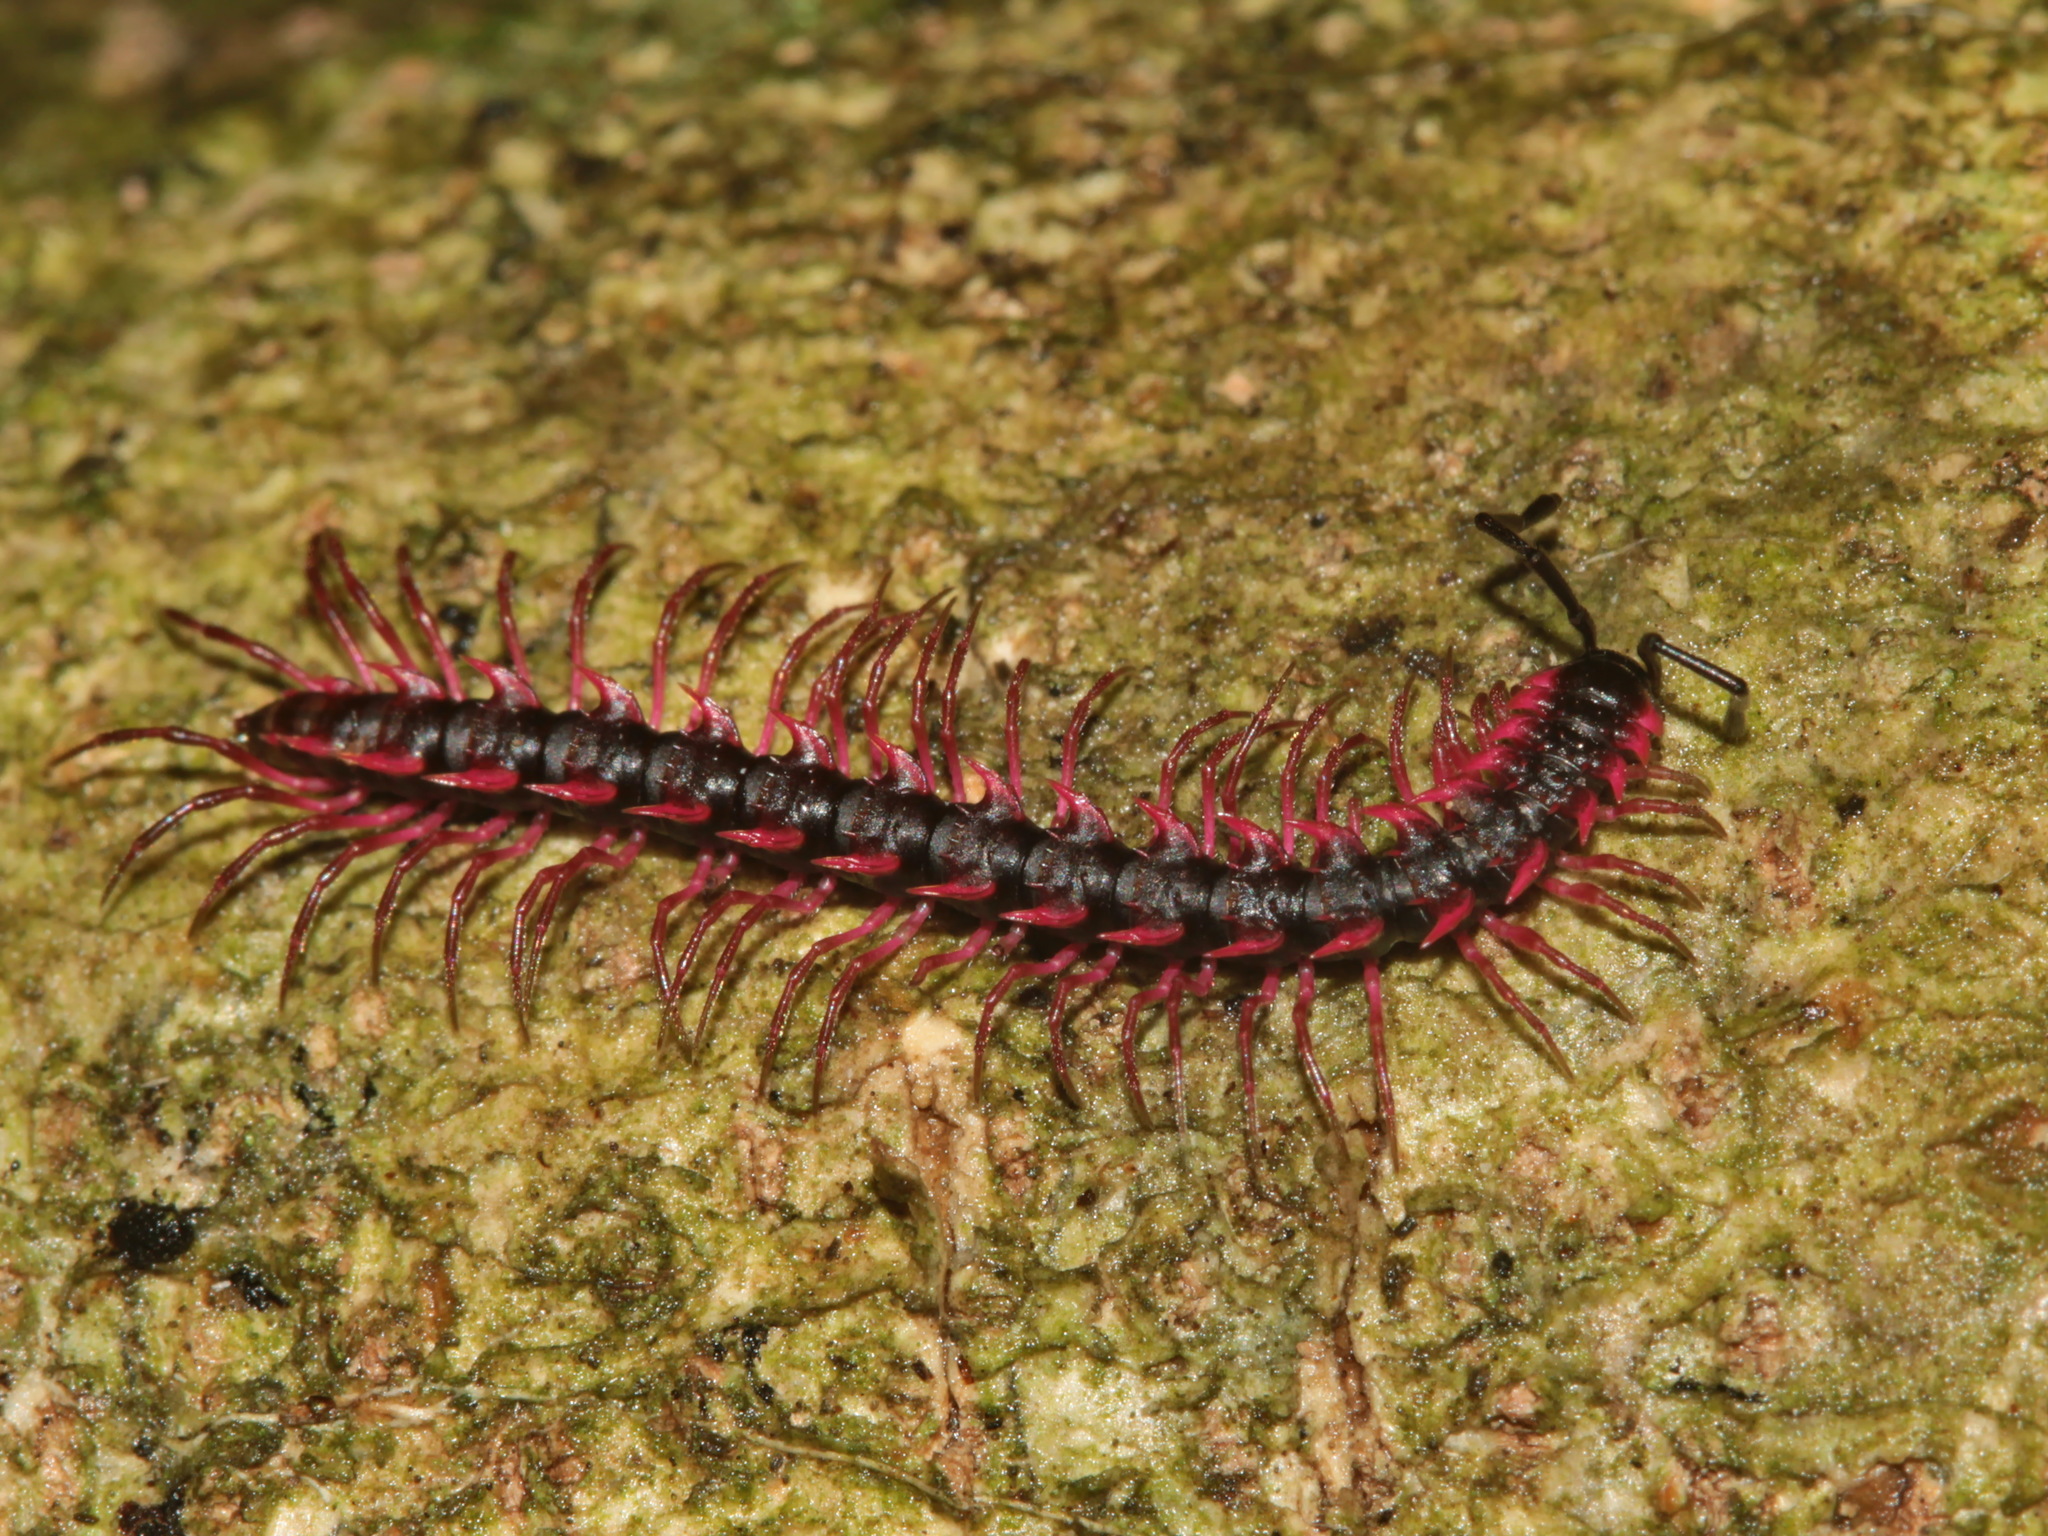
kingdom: Animalia
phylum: Arthropoda
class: Diplopoda
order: Polydesmida
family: Paradoxosomatidae
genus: Desmoxytes
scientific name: Desmoxytes planata
